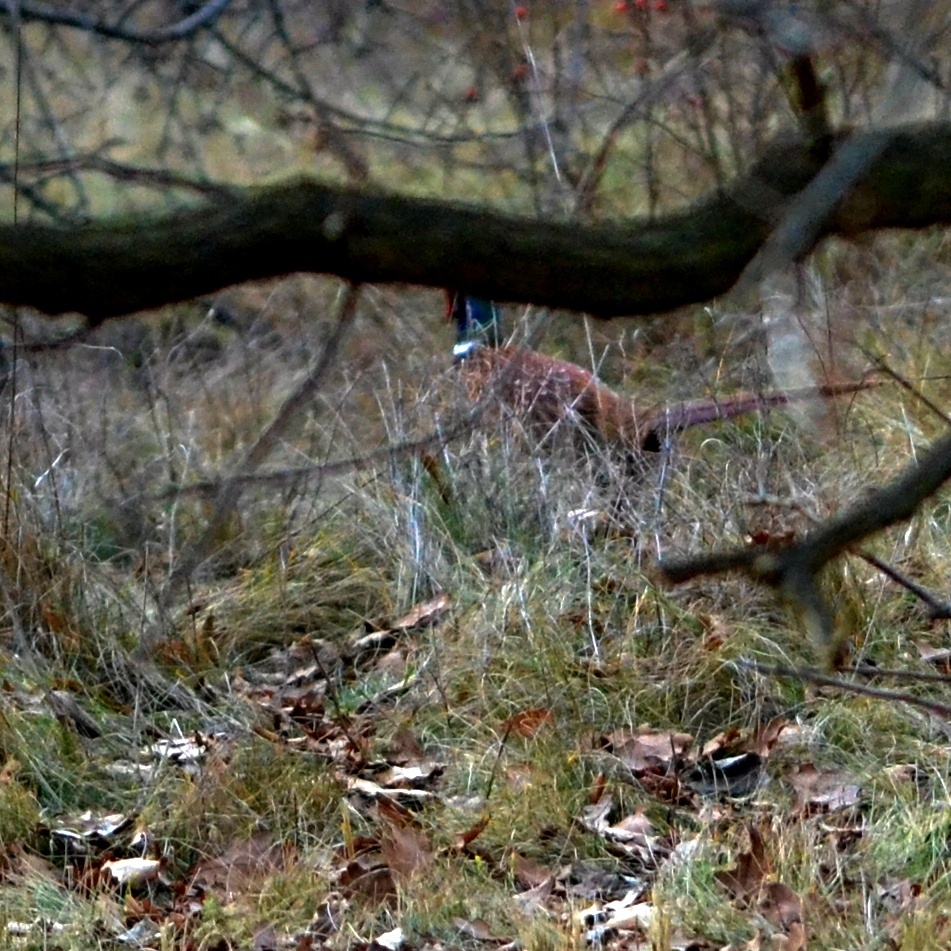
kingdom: Animalia
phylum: Chordata
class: Aves
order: Galliformes
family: Phasianidae
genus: Phasianus
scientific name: Phasianus colchicus
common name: Common pheasant
